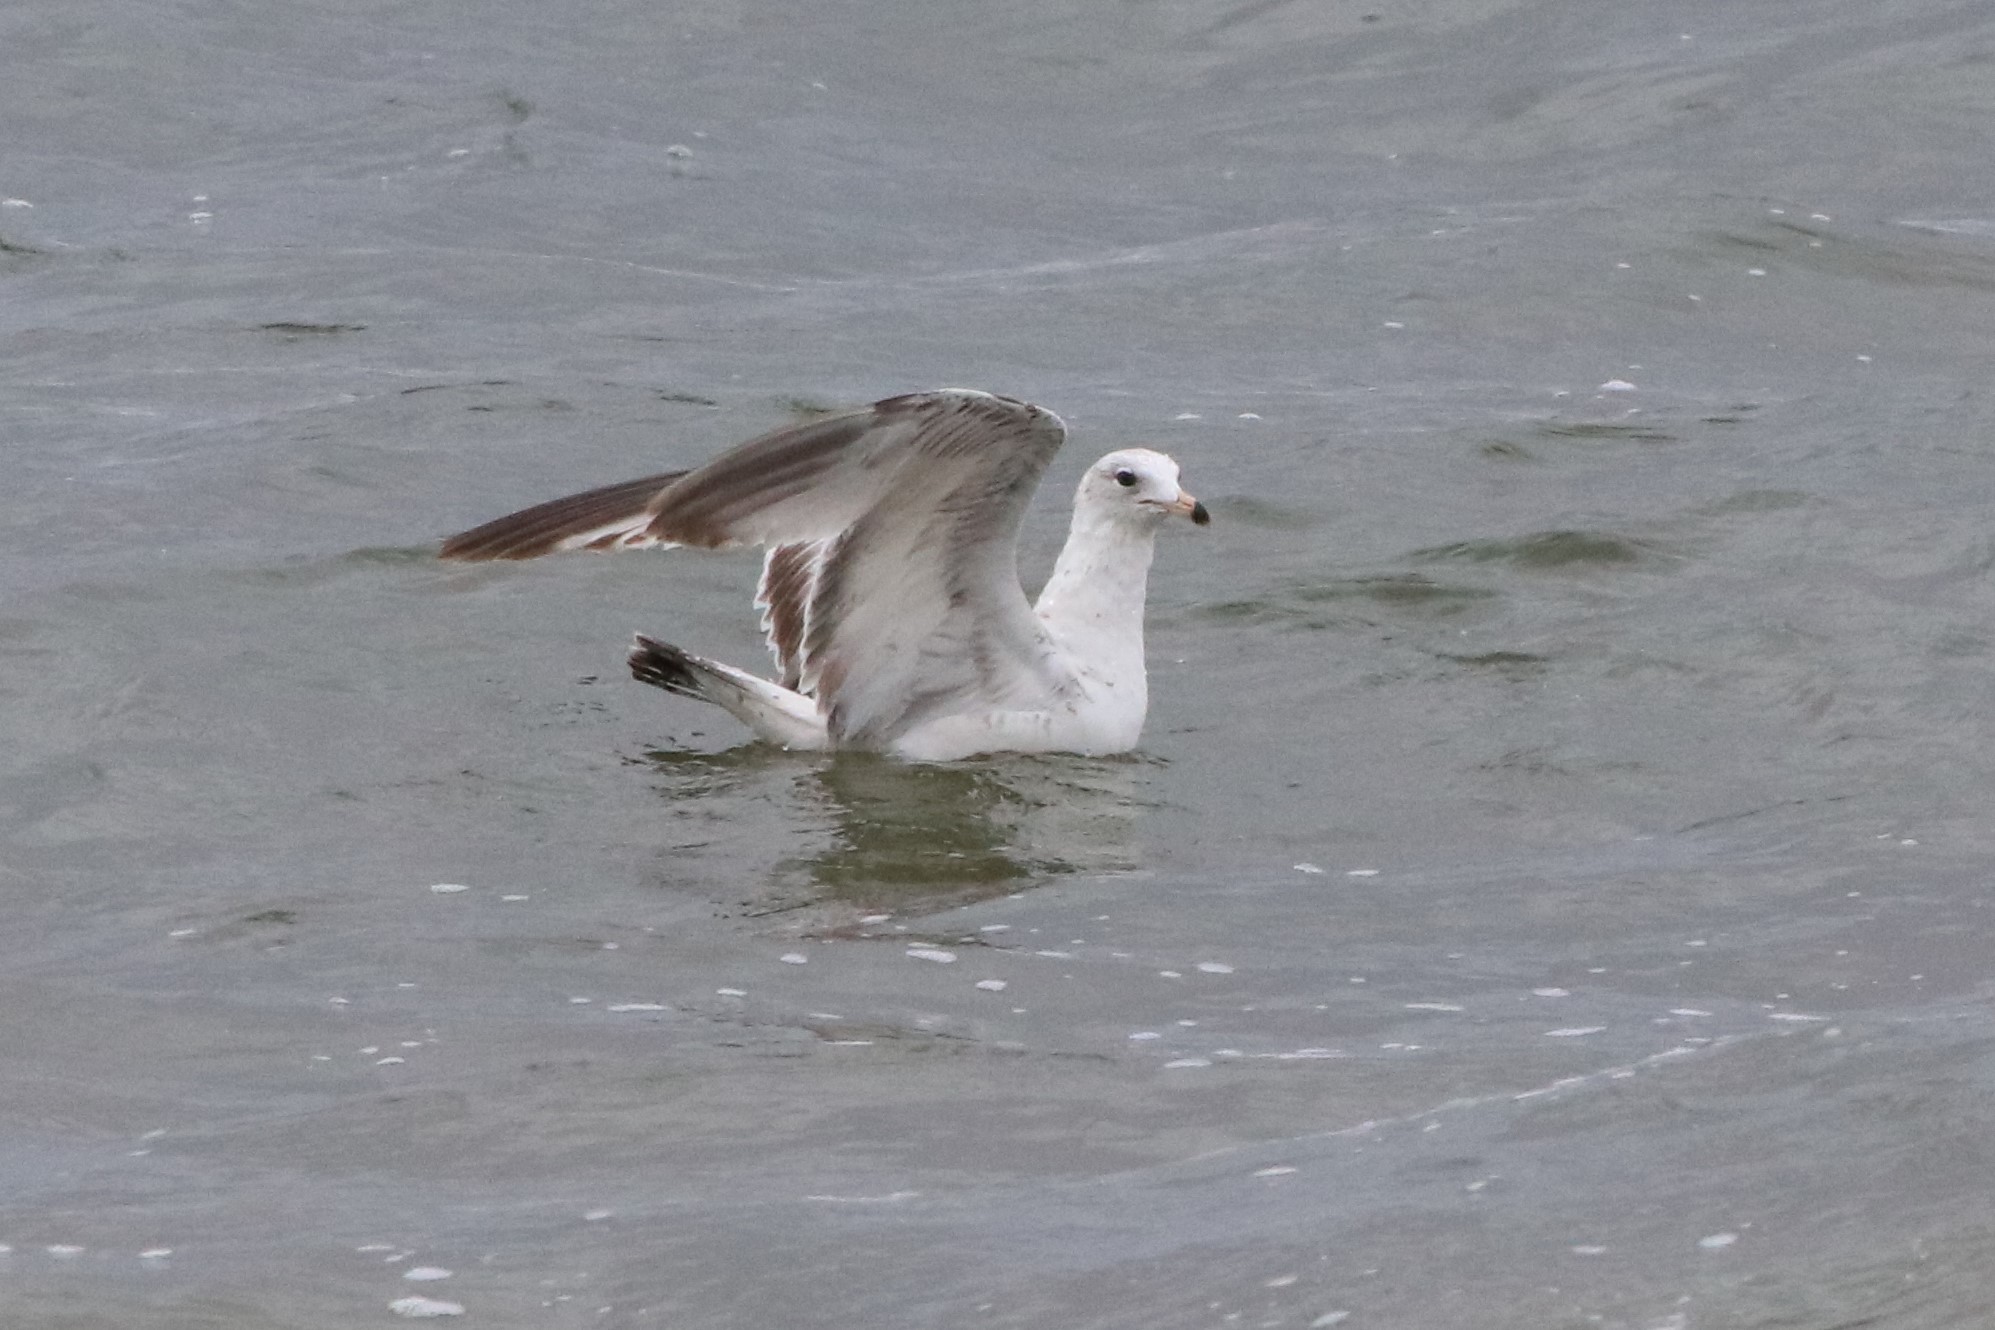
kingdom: Animalia
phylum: Chordata
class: Aves
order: Charadriiformes
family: Laridae
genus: Larus
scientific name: Larus delawarensis
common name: Ring-billed gull
